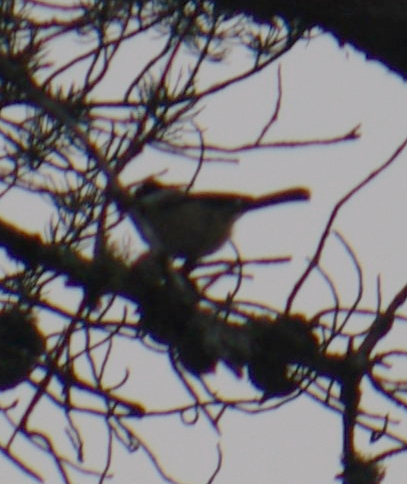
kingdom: Animalia
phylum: Chordata
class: Aves
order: Passeriformes
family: Paridae
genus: Poecile
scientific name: Poecile atricapillus
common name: Black-capped chickadee
